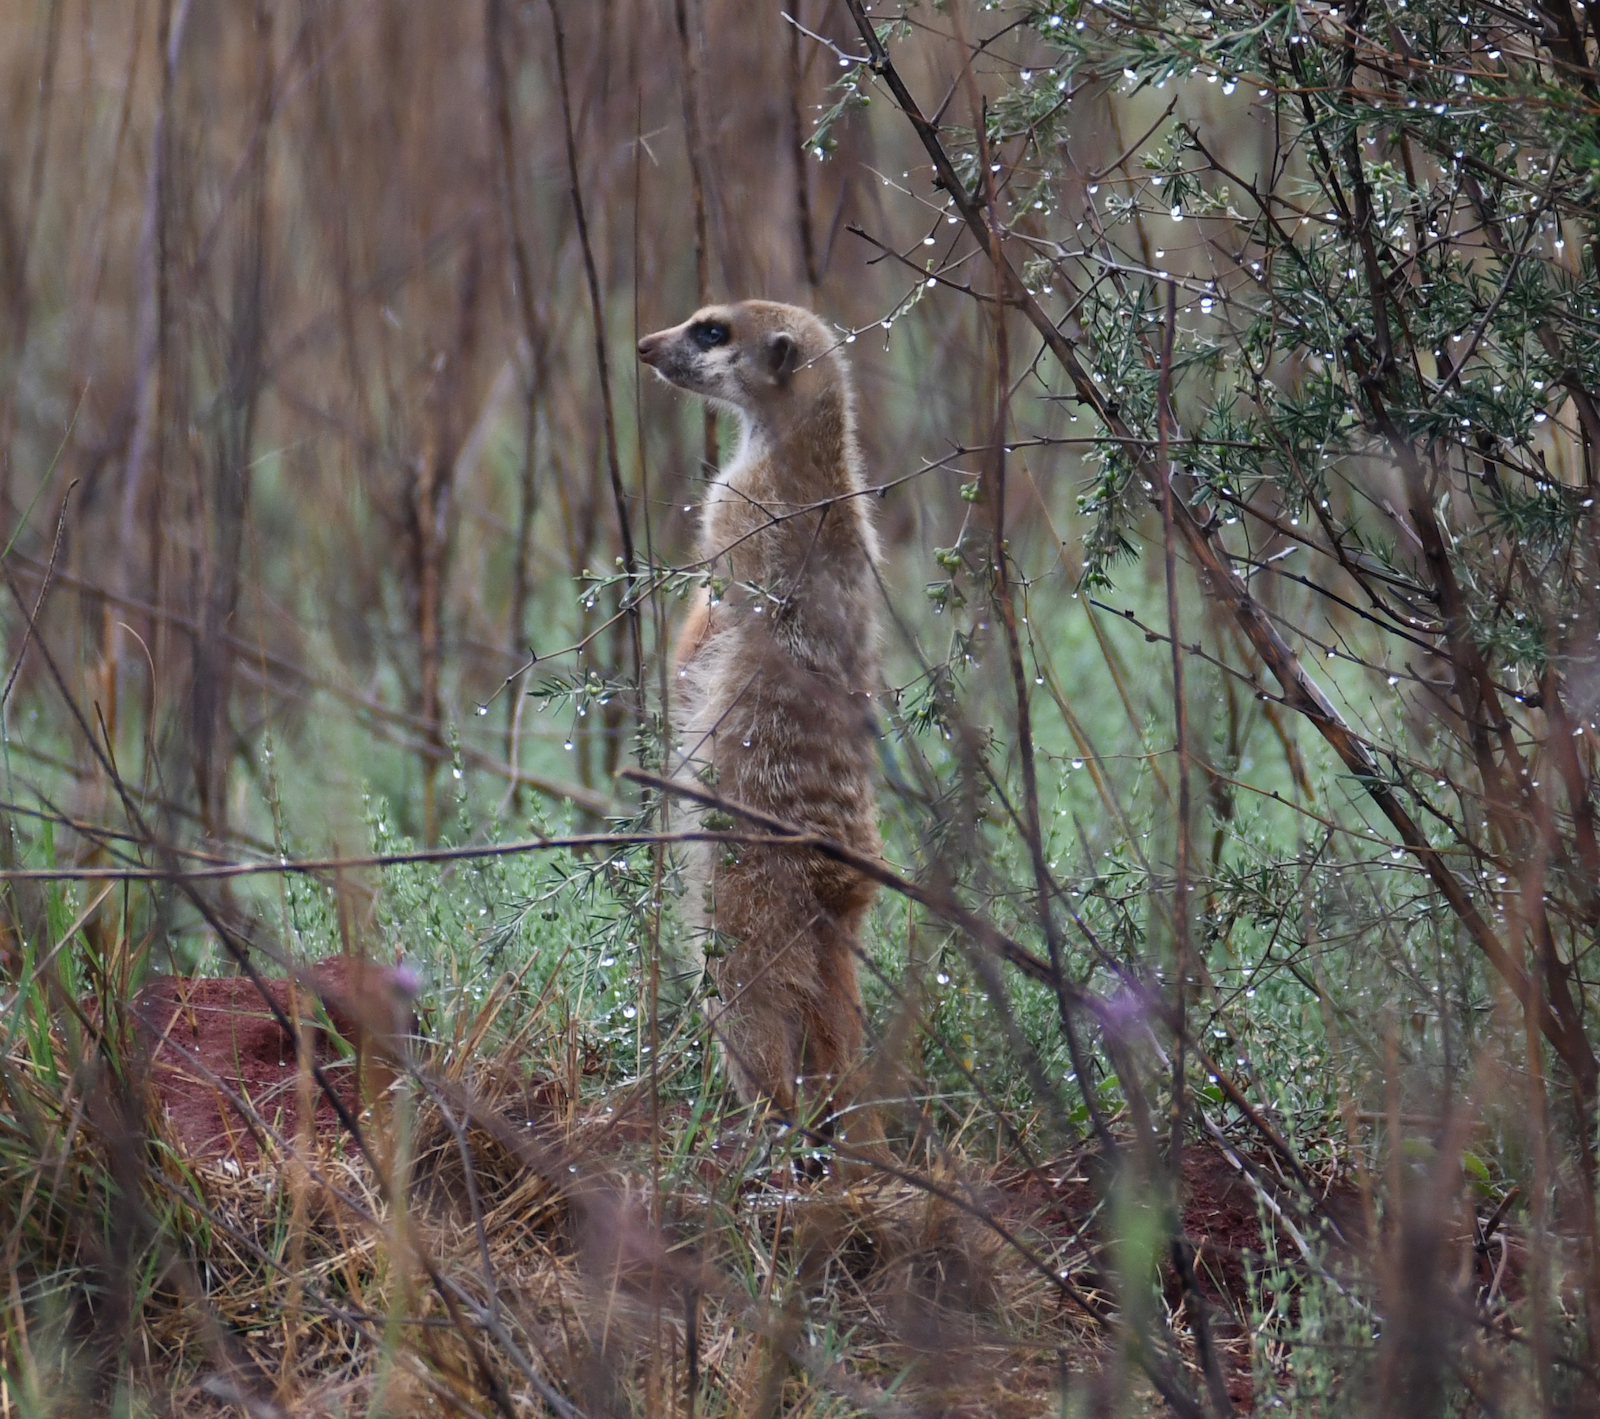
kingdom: Animalia
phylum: Chordata
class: Mammalia
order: Carnivora
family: Herpestidae
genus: Suricata
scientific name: Suricata suricatta
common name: Meerkat
